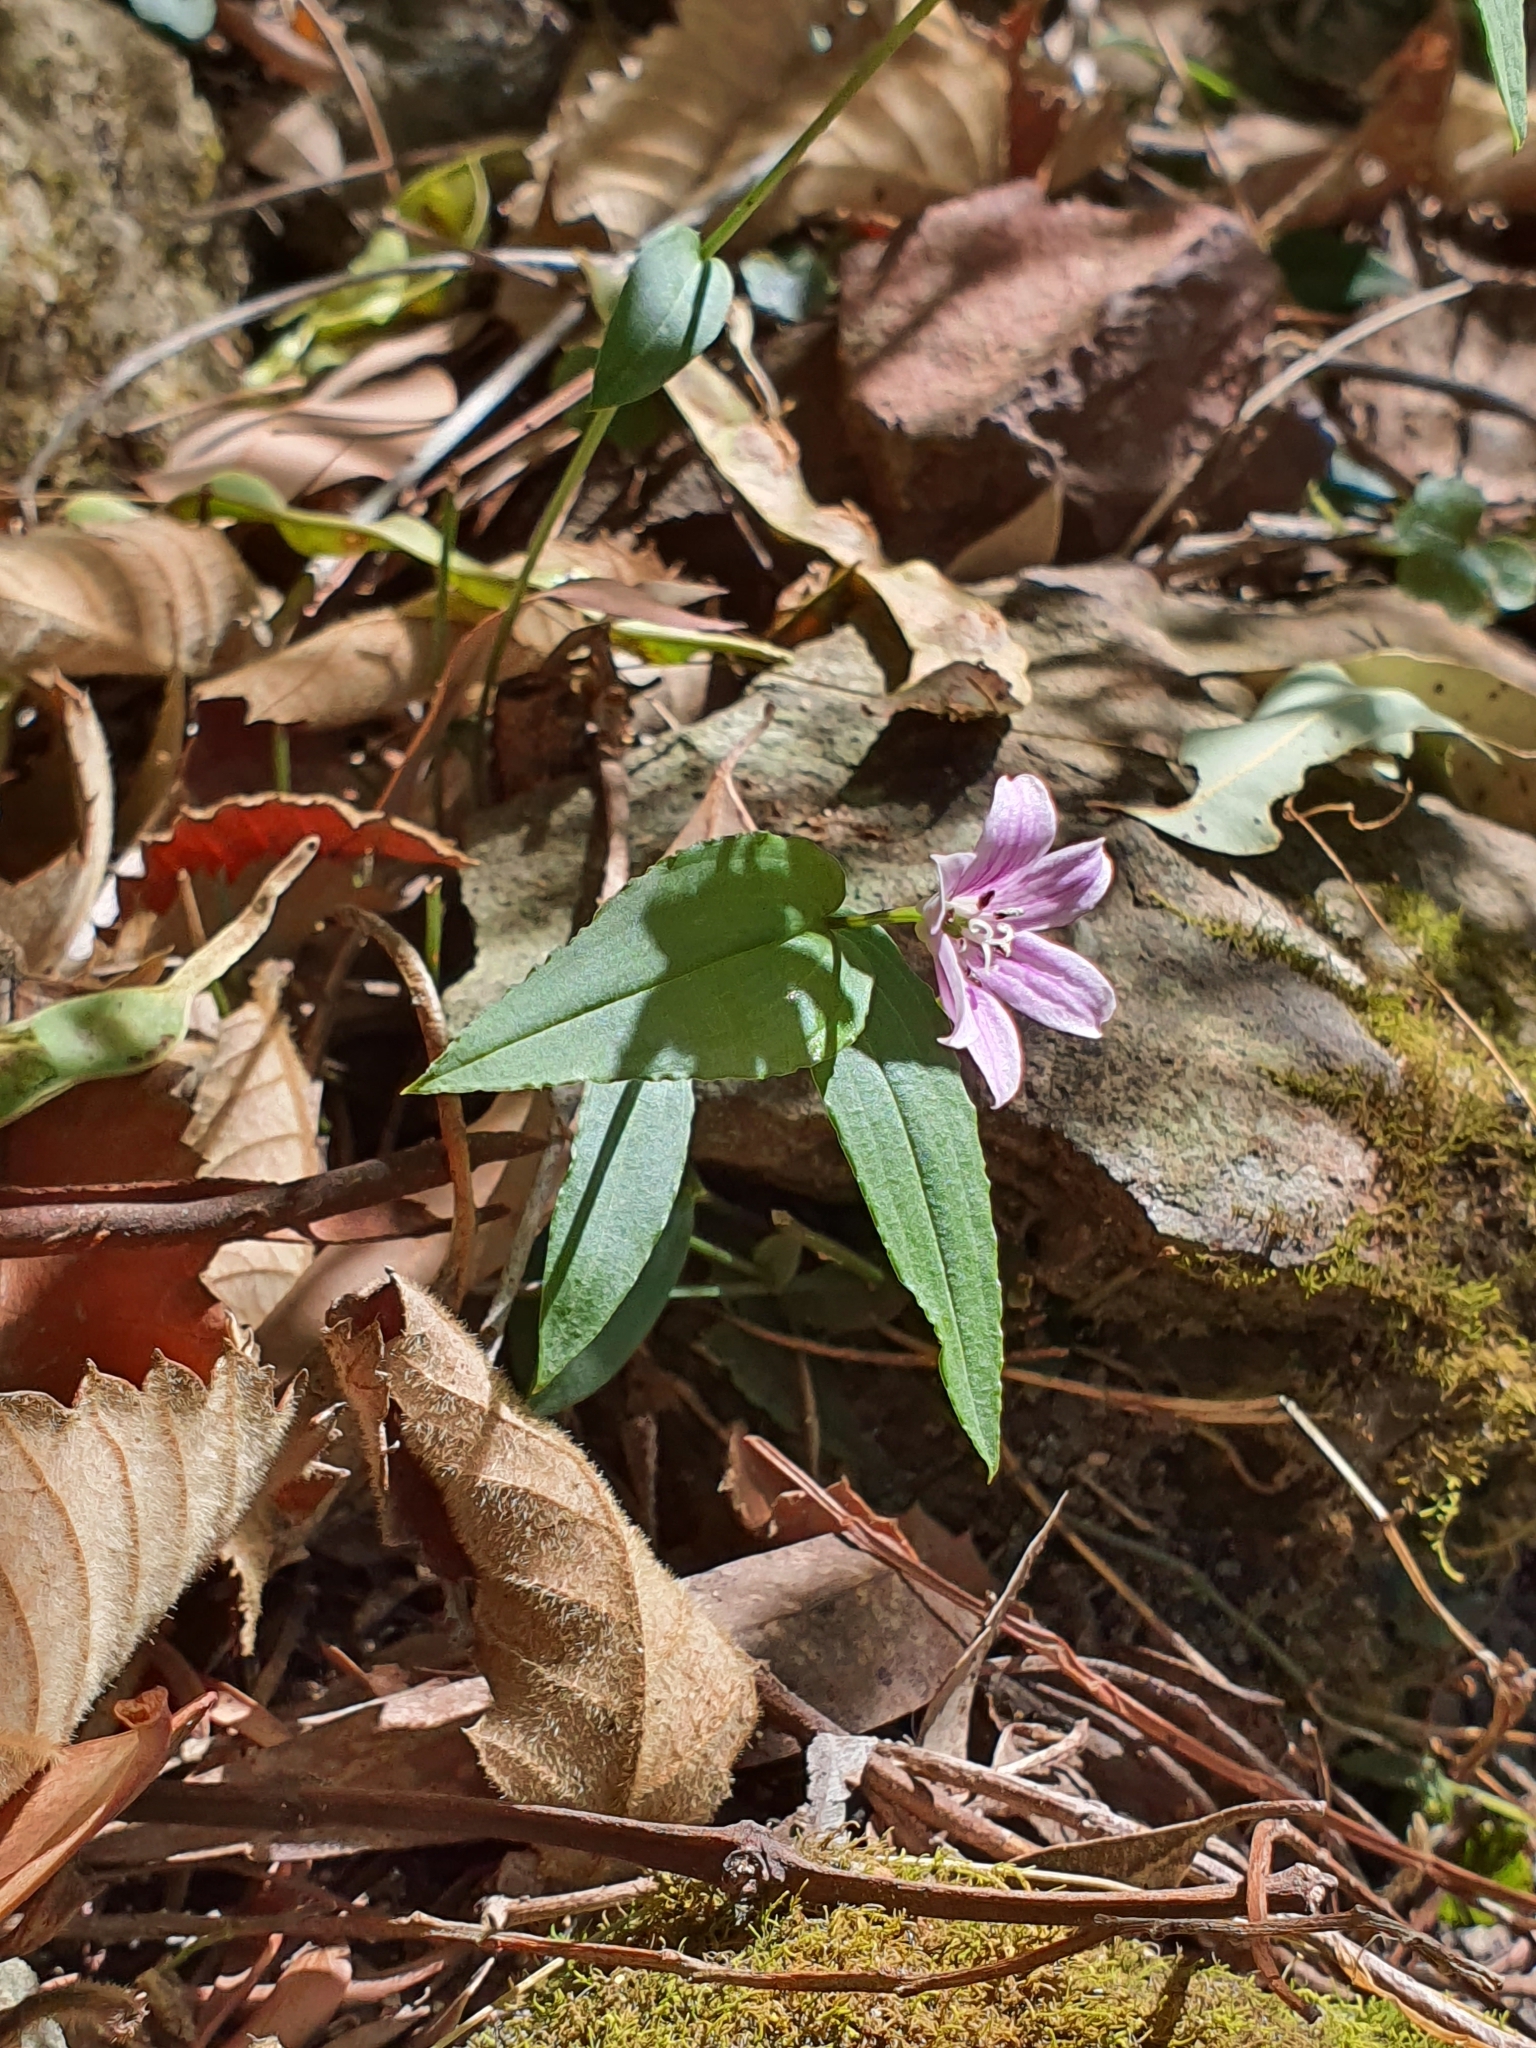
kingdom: Plantae
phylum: Tracheophyta
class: Liliopsida
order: Liliales
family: Colchicaceae
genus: Schelhammera
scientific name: Schelhammera undulata
